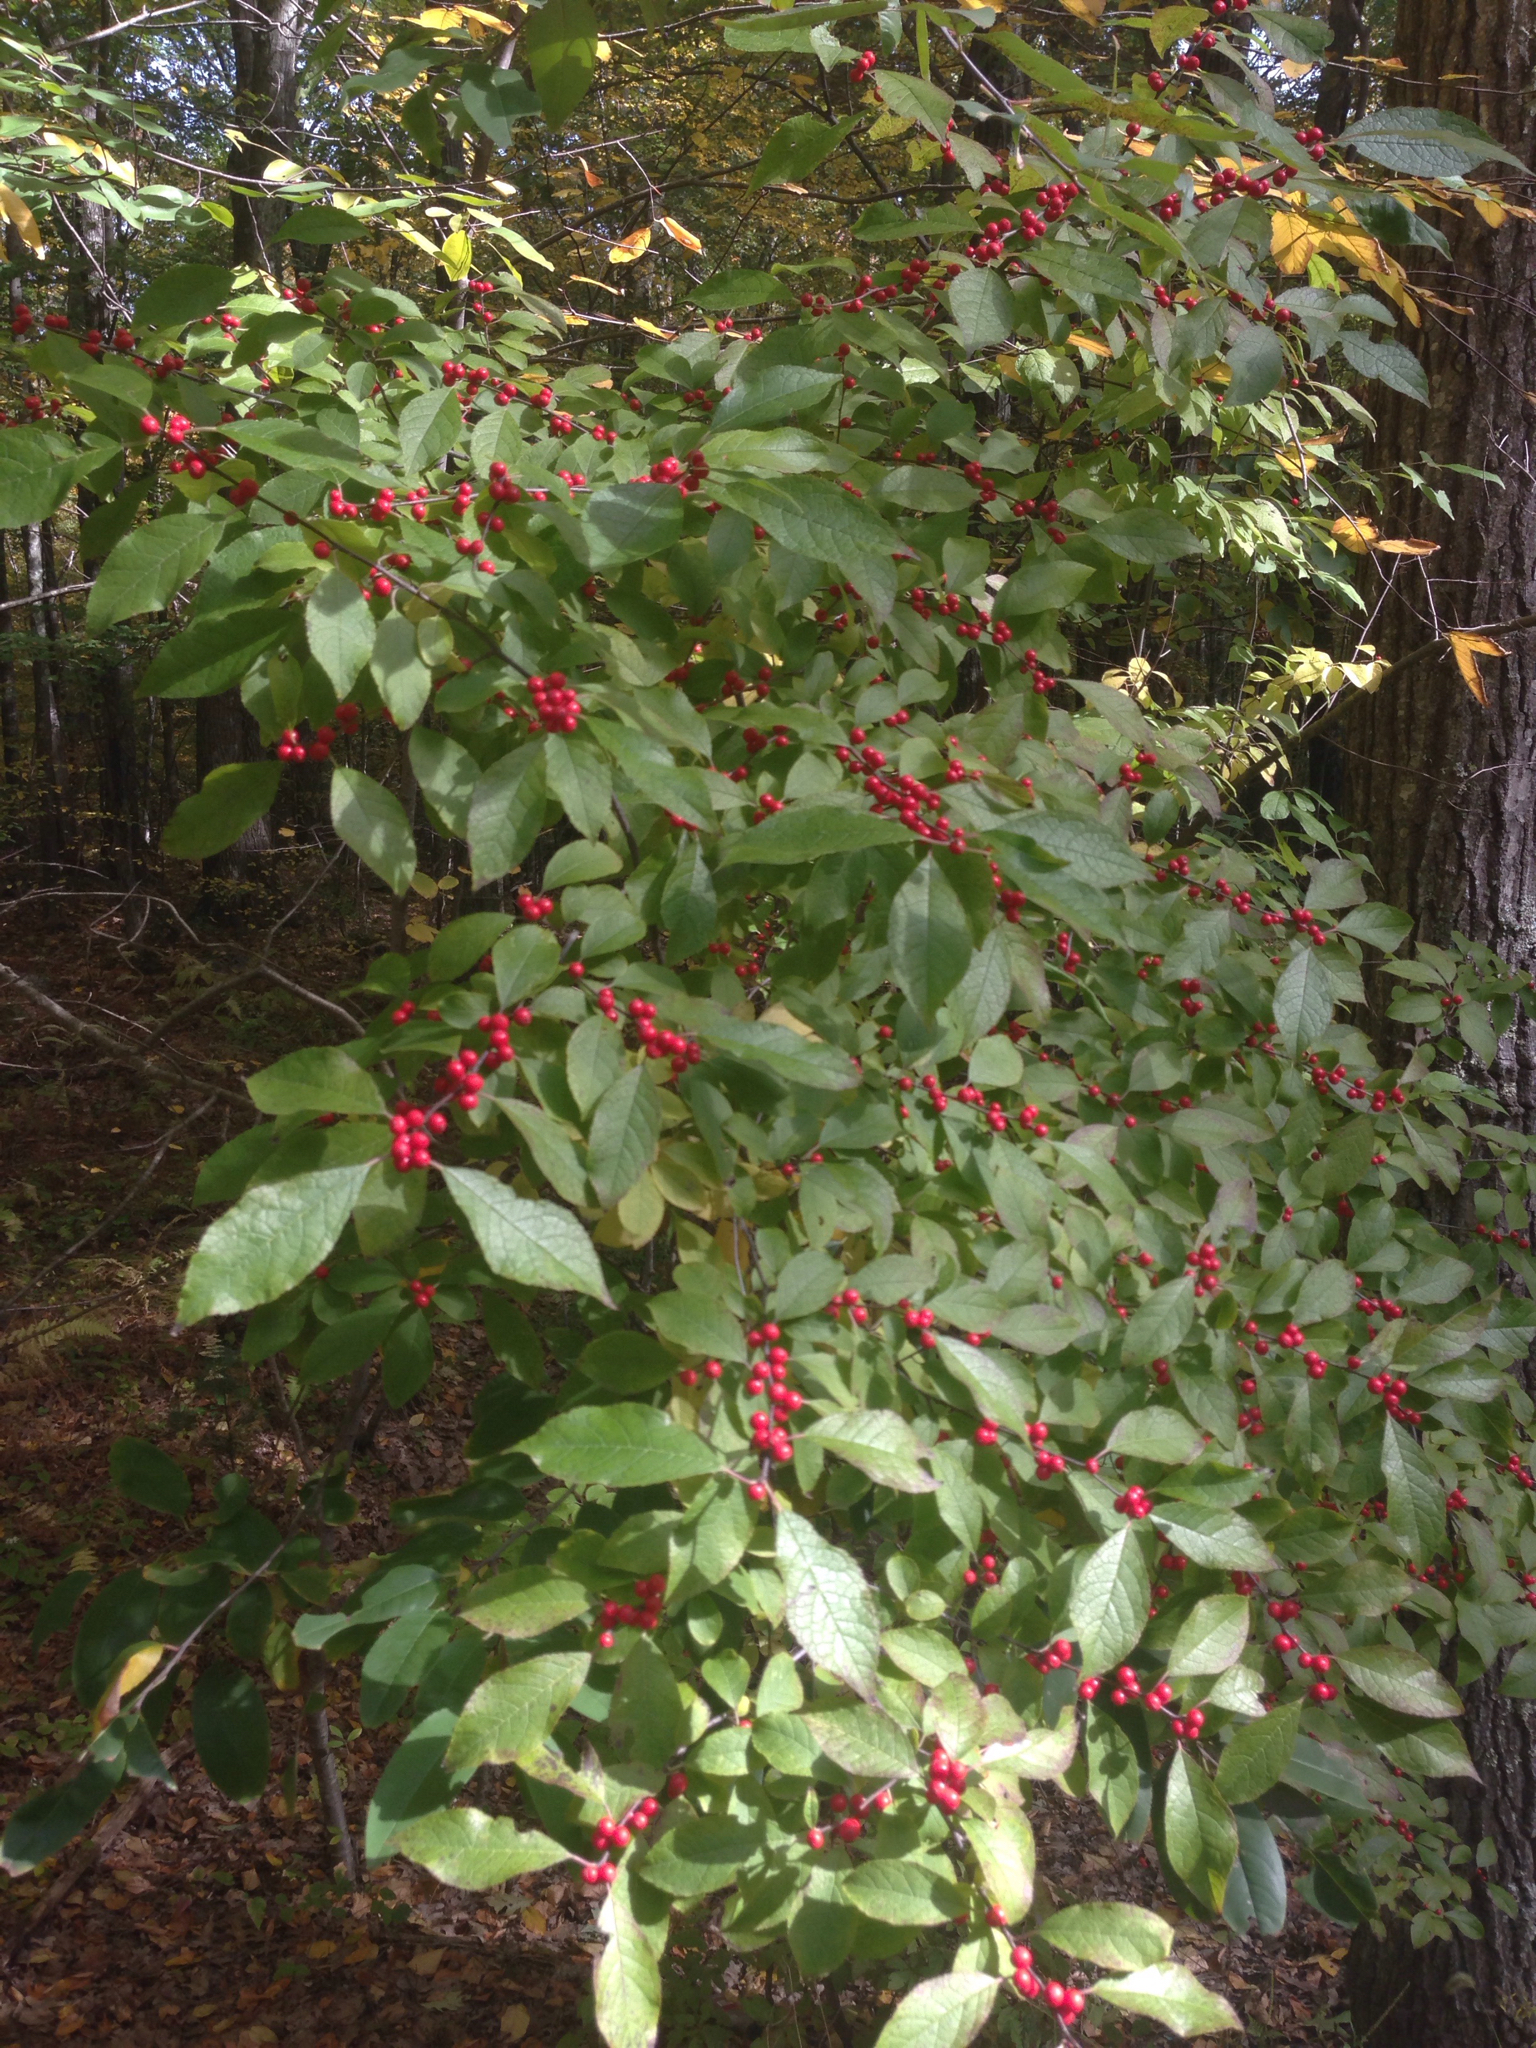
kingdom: Plantae
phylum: Tracheophyta
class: Magnoliopsida
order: Aquifoliales
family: Aquifoliaceae
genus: Ilex
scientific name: Ilex verticillata
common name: Virginia winterberry
